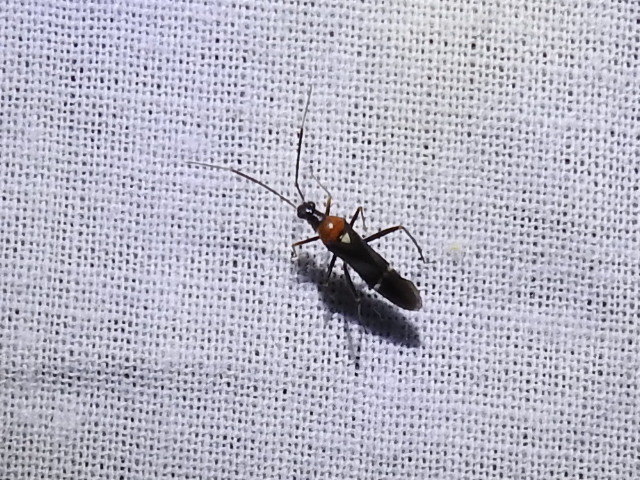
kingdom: Animalia
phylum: Arthropoda
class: Insecta
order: Hemiptera
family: Miridae
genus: Pseudoxenetus
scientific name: Pseudoxenetus regalis
